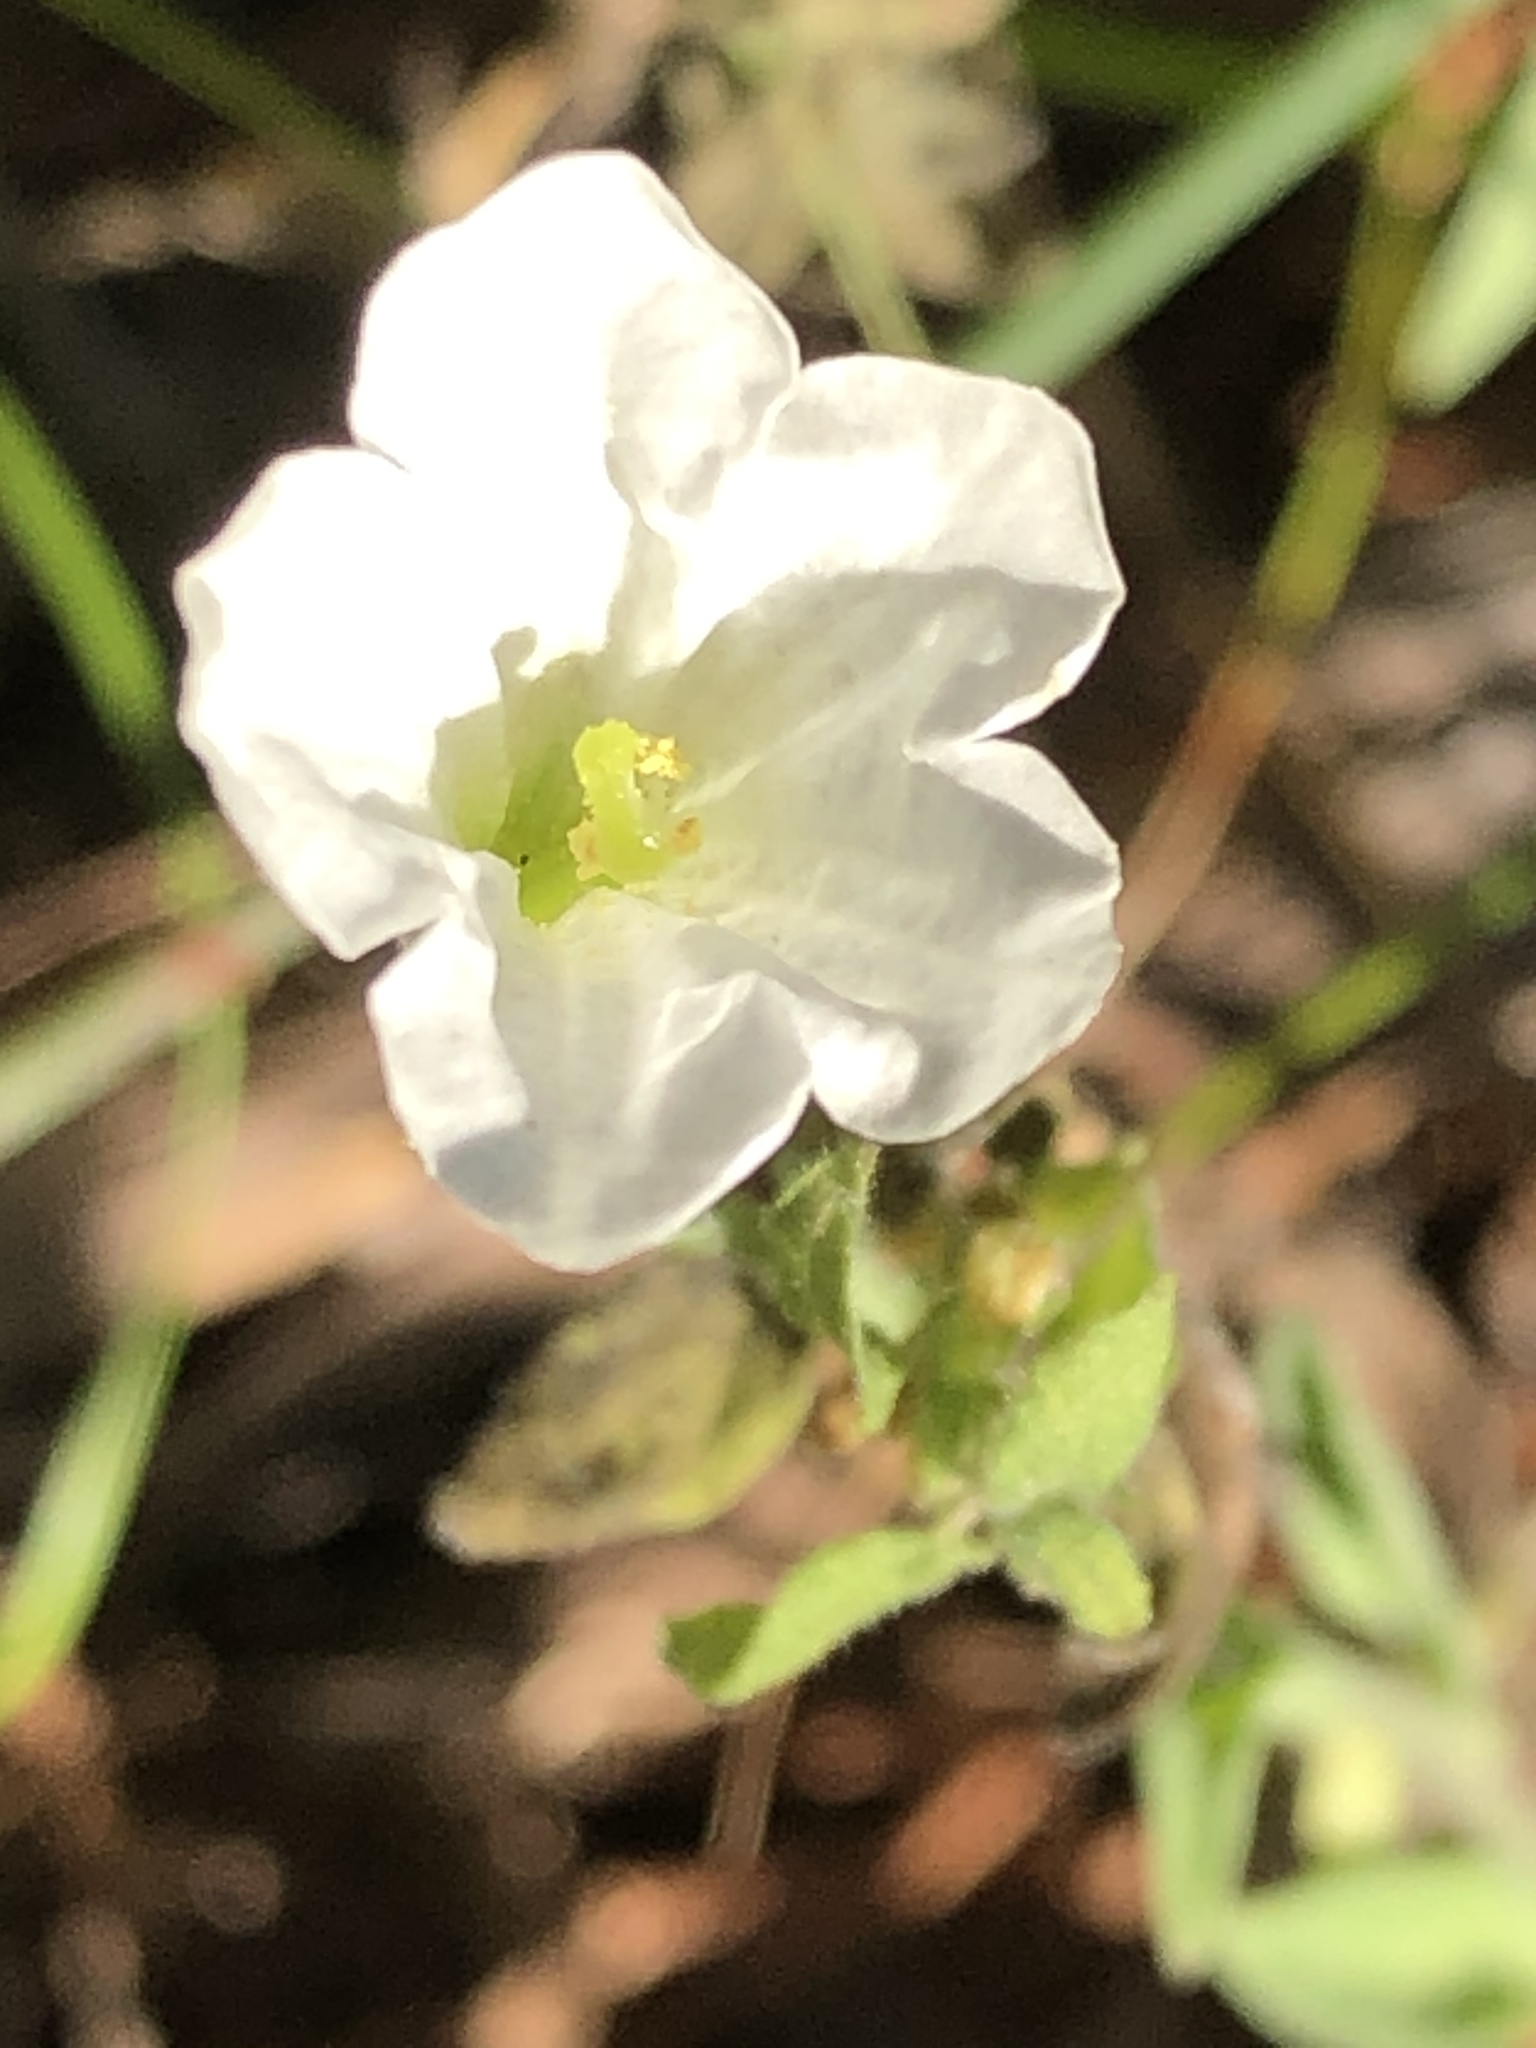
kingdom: Plantae
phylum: Tracheophyta
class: Magnoliopsida
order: Solanales
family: Solanaceae
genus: Salpiglossis
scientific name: Salpiglossis erecta
